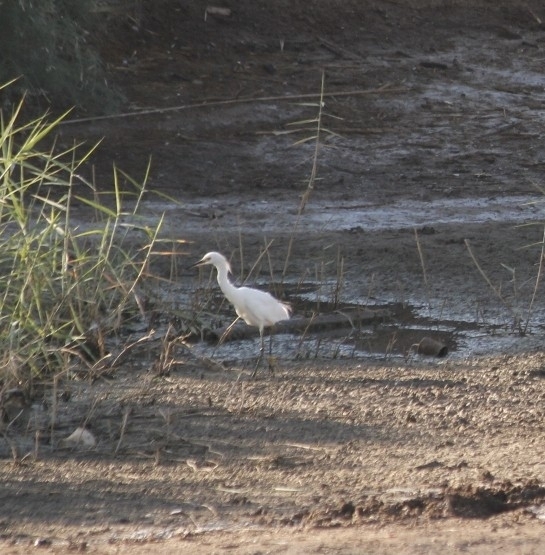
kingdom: Animalia
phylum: Chordata
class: Aves
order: Pelecaniformes
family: Ardeidae
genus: Egretta
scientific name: Egretta thula
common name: Snowy egret
